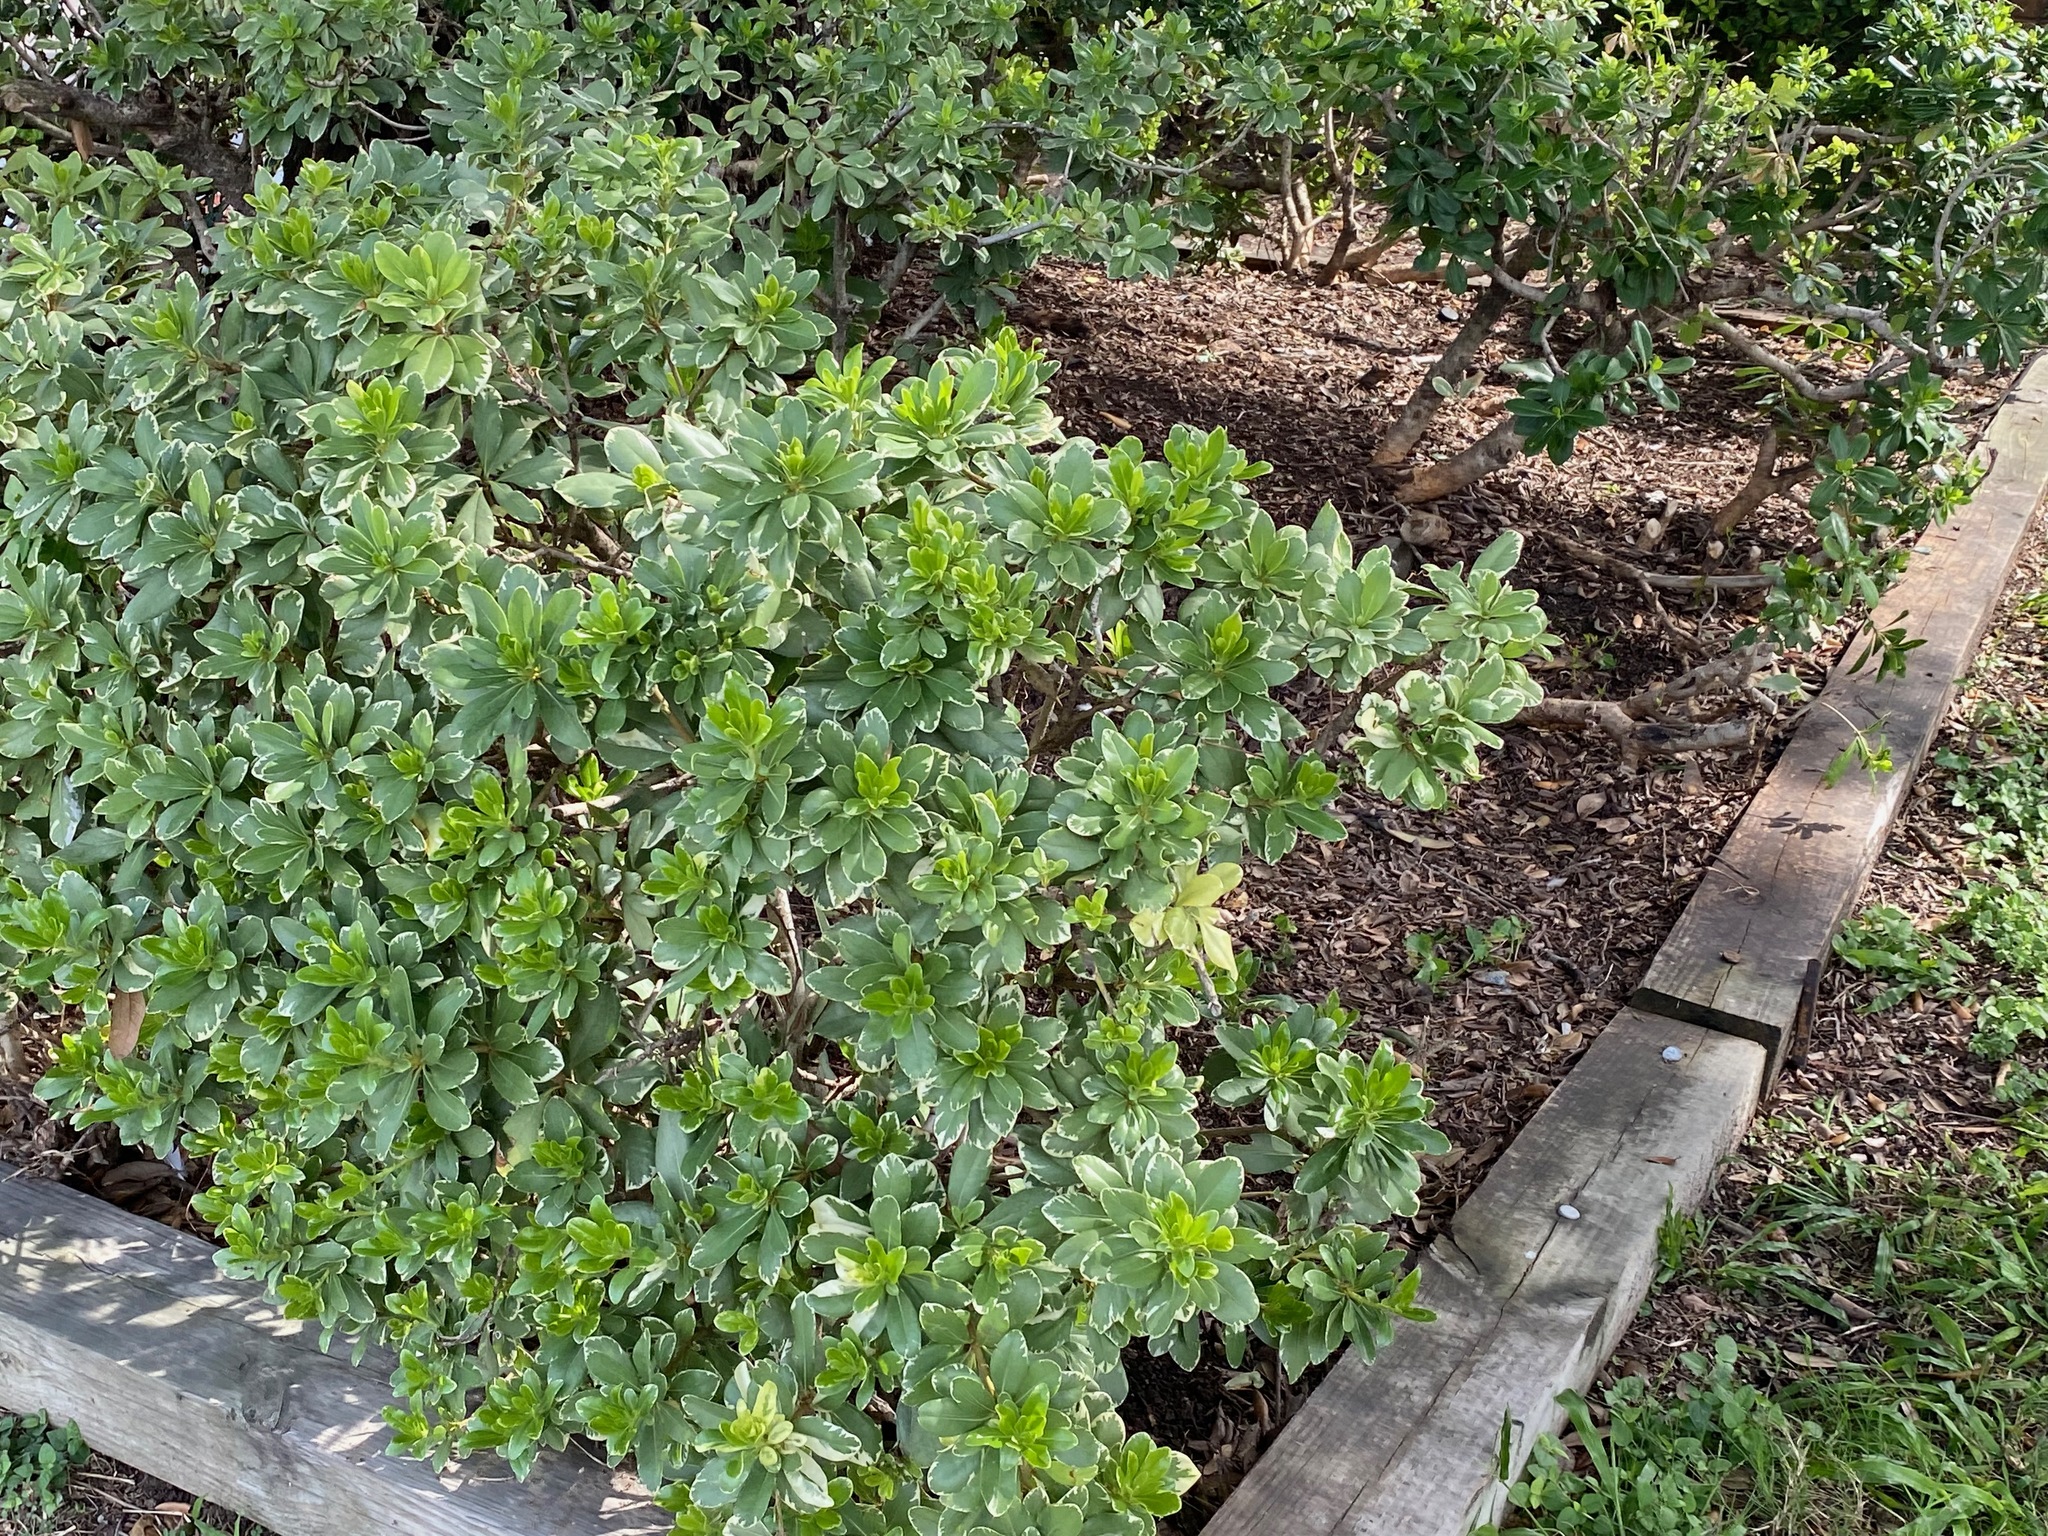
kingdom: Plantae
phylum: Tracheophyta
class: Magnoliopsida
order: Apiales
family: Pittosporaceae
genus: Pittosporum
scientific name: Pittosporum tobira
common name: Japanese cheesewood
